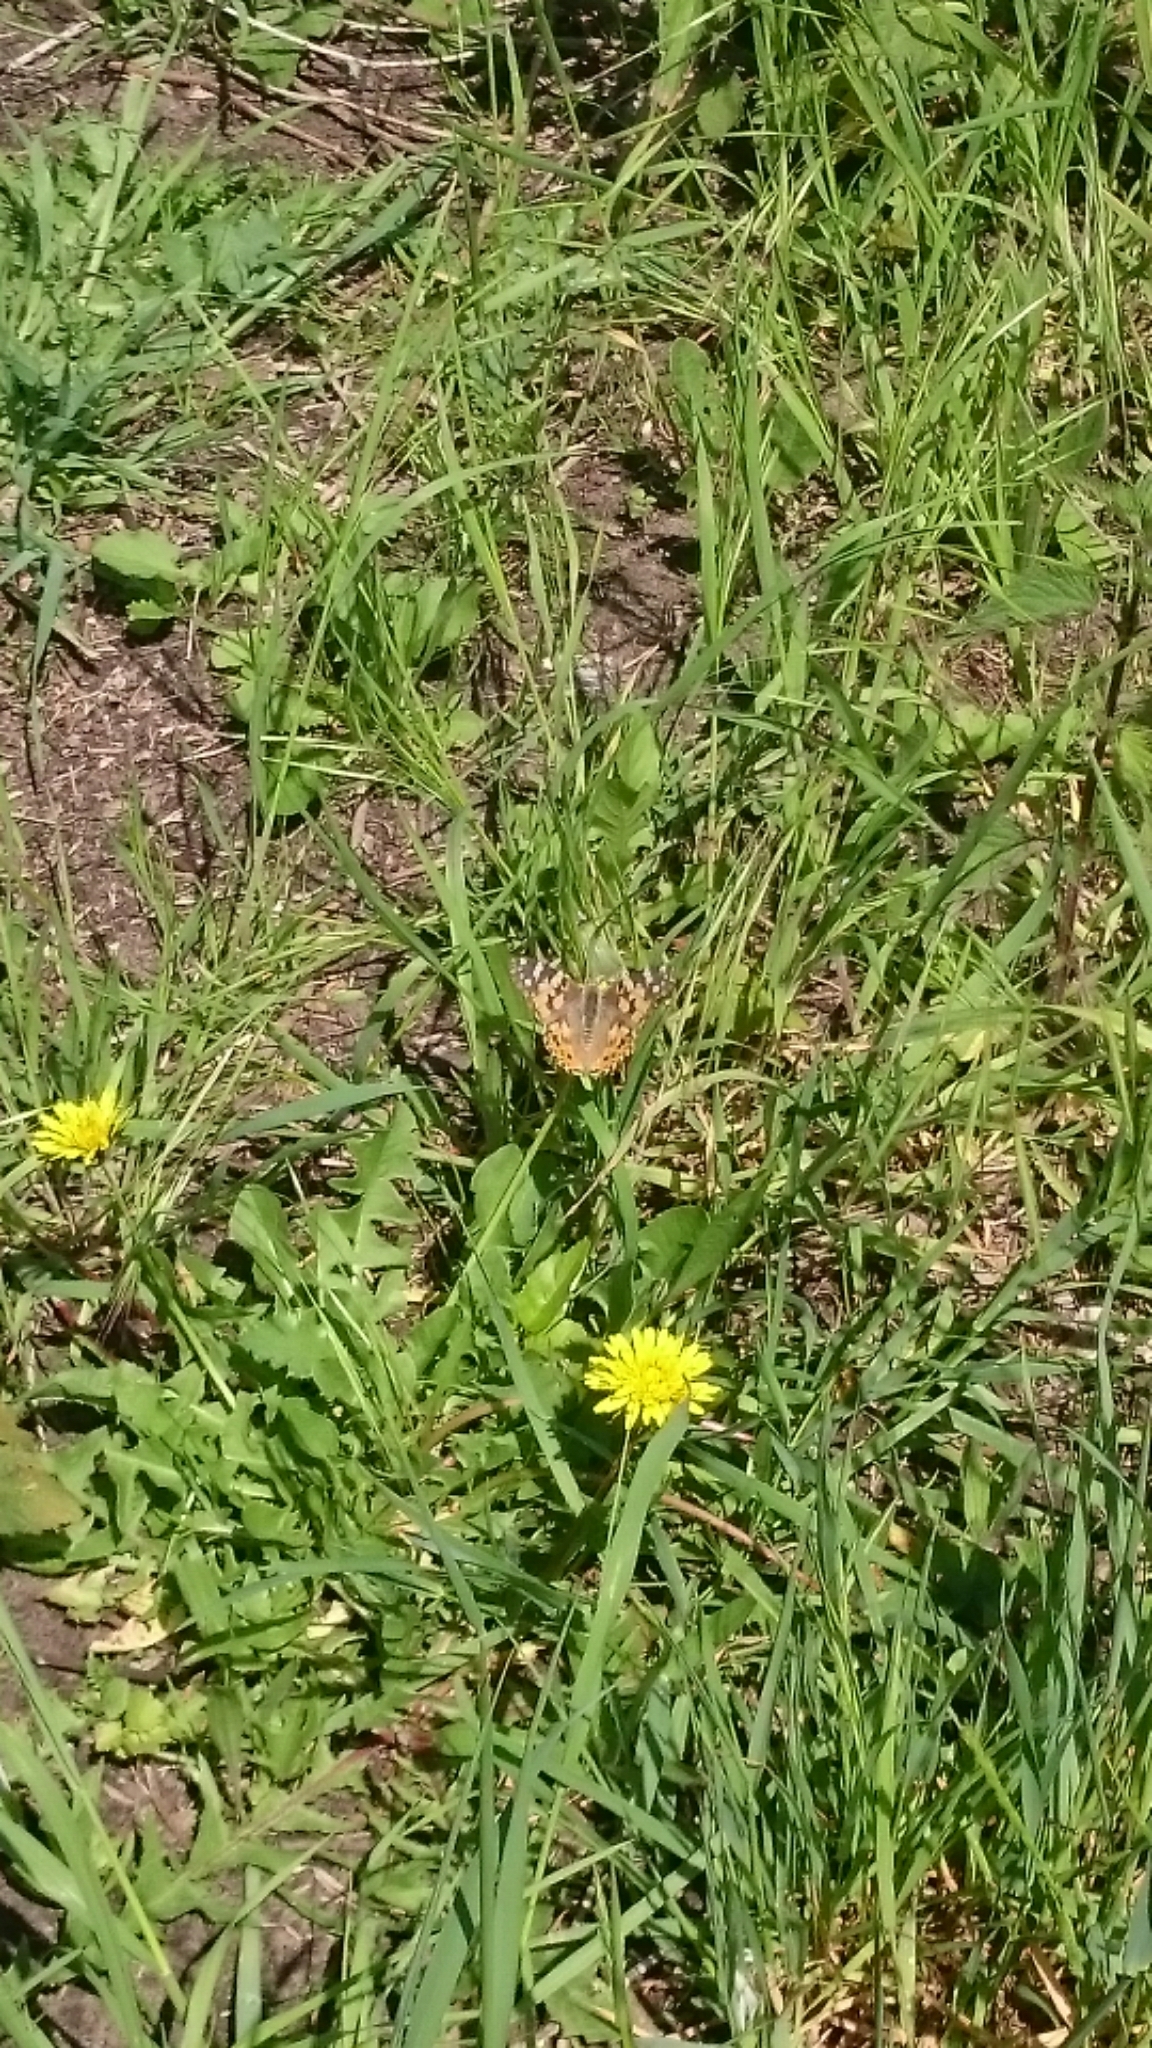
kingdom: Animalia
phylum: Arthropoda
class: Insecta
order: Lepidoptera
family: Nymphalidae
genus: Vanessa
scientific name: Vanessa cardui
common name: Painted lady
